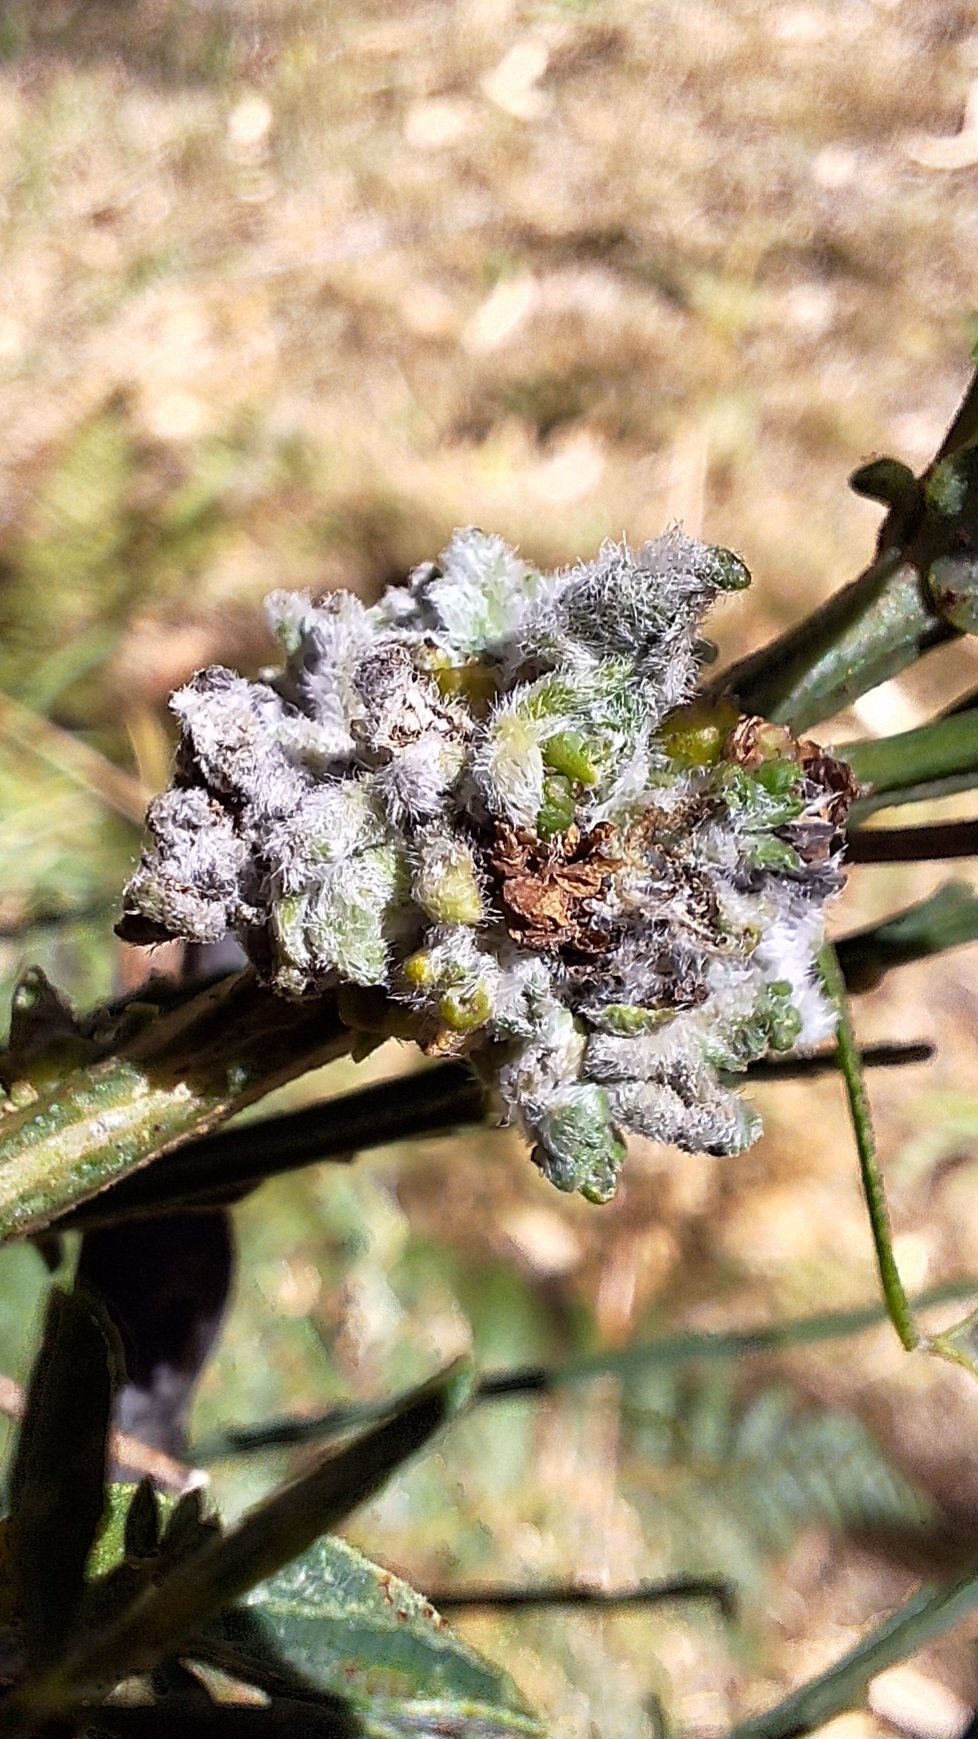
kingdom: Animalia
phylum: Arthropoda
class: Arachnida
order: Trombidiformes
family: Eriophyidae
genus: Aceria
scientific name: Aceria genistae
